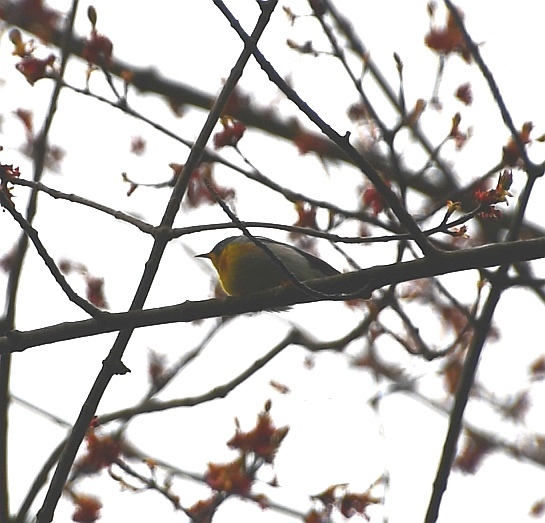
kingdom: Animalia
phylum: Chordata
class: Aves
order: Passeriformes
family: Parulidae
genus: Setophaga
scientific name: Setophaga americana
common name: Northern parula
